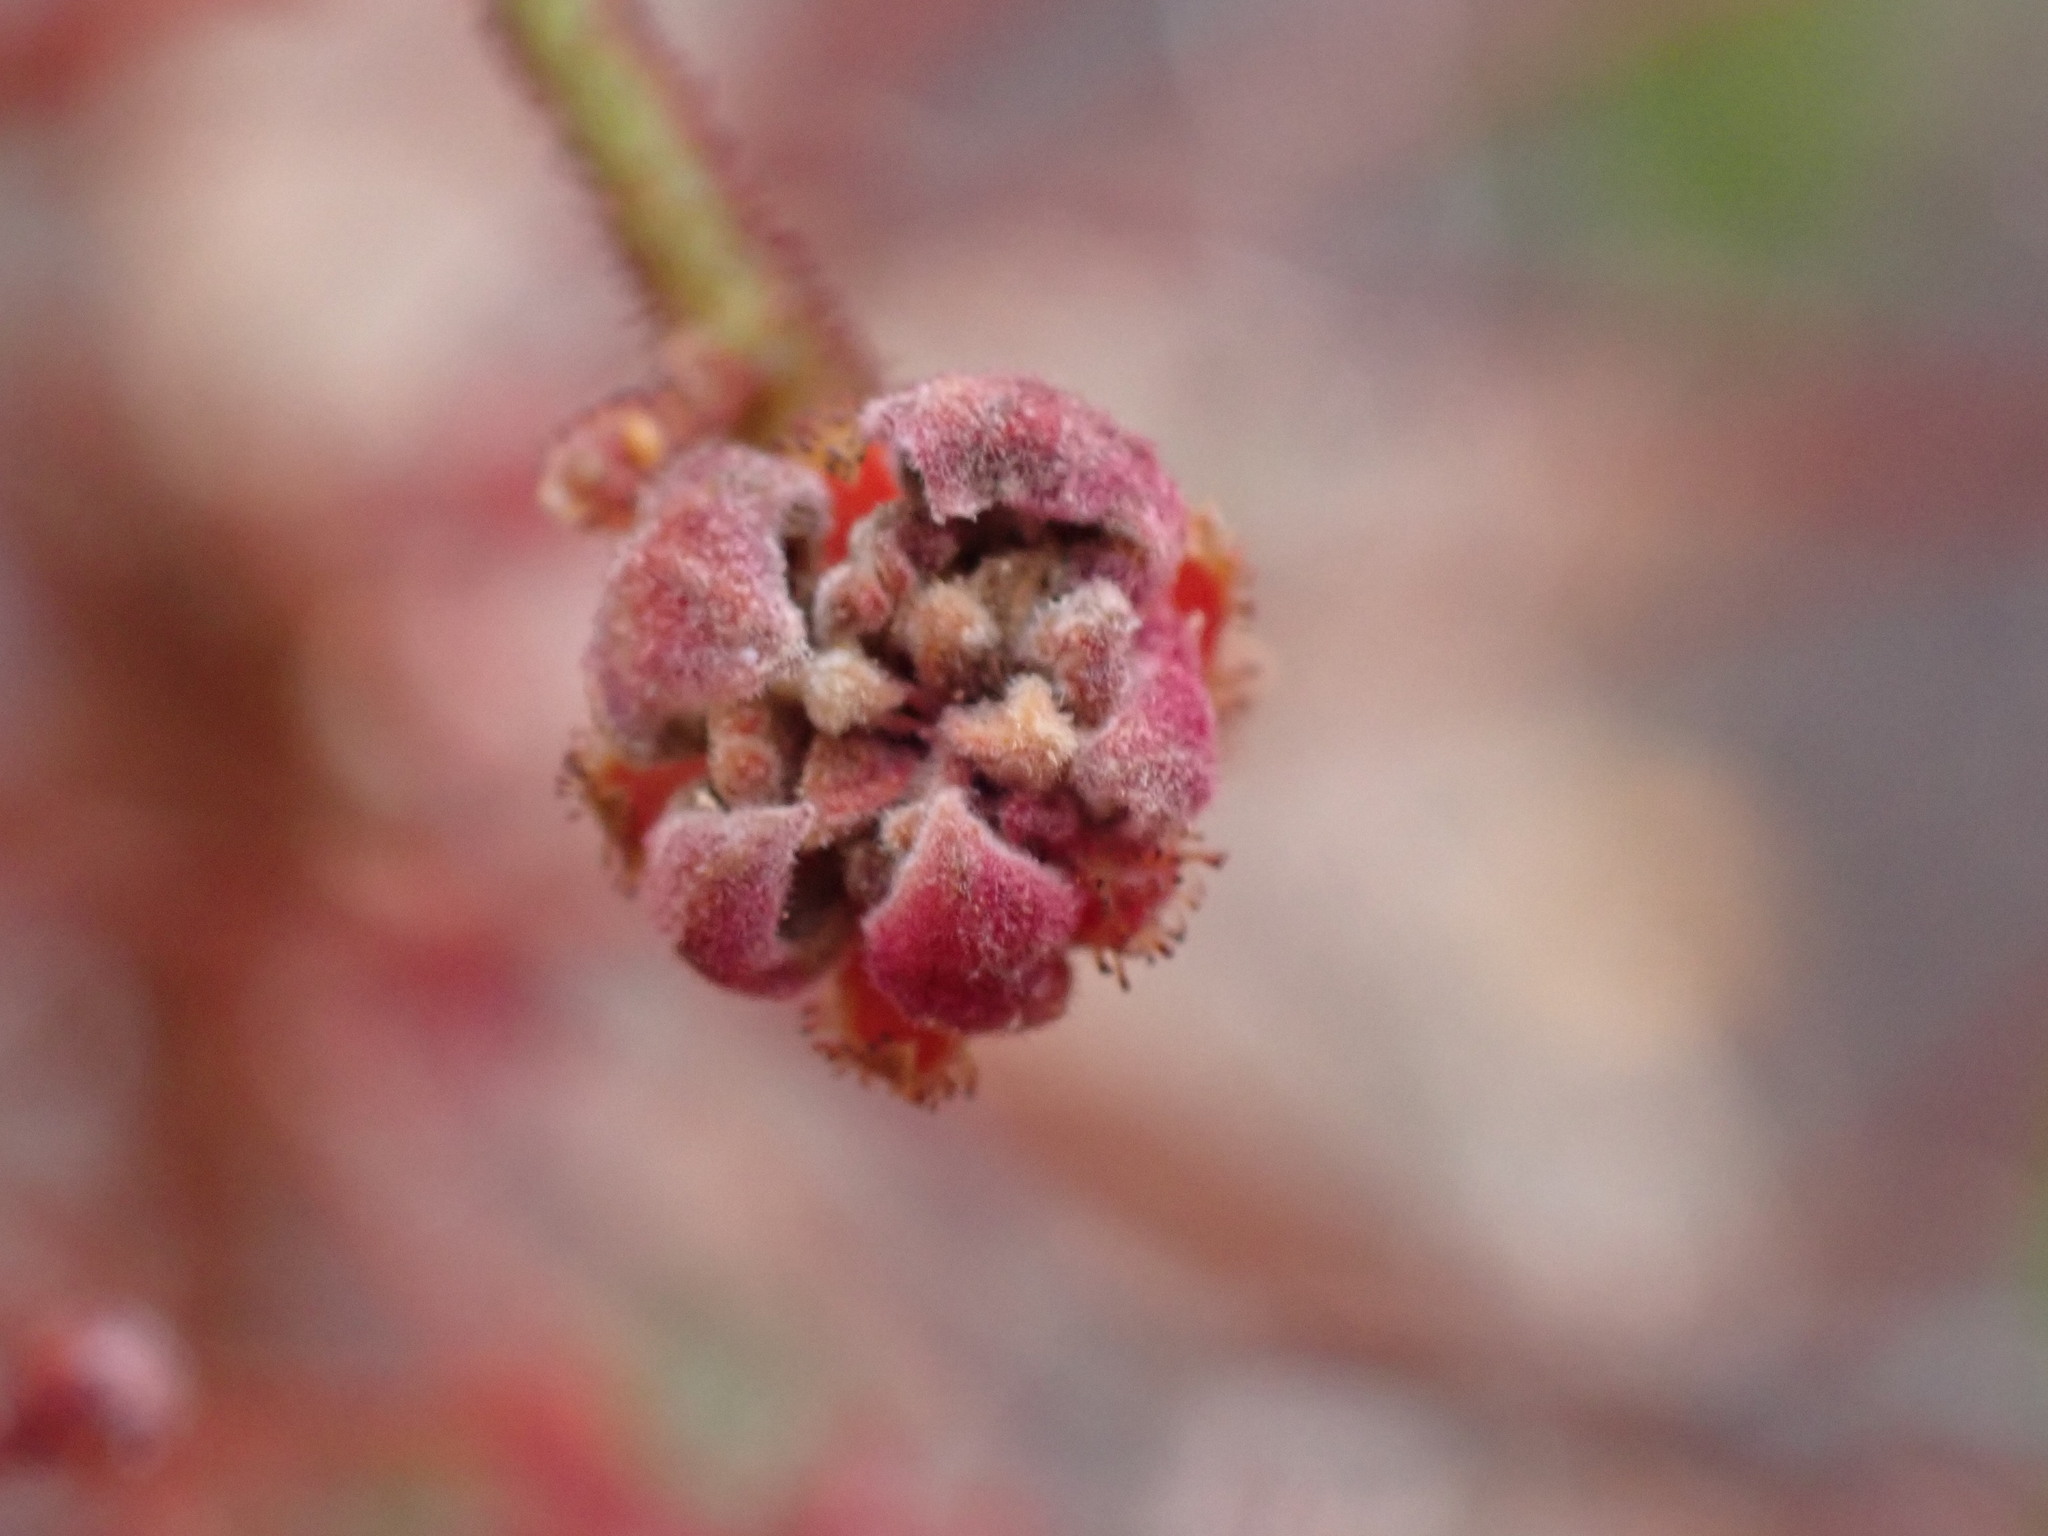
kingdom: Plantae
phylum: Tracheophyta
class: Magnoliopsida
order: Sapindales
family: Simaroubaceae
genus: Eurycoma
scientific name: Eurycoma longifolia
